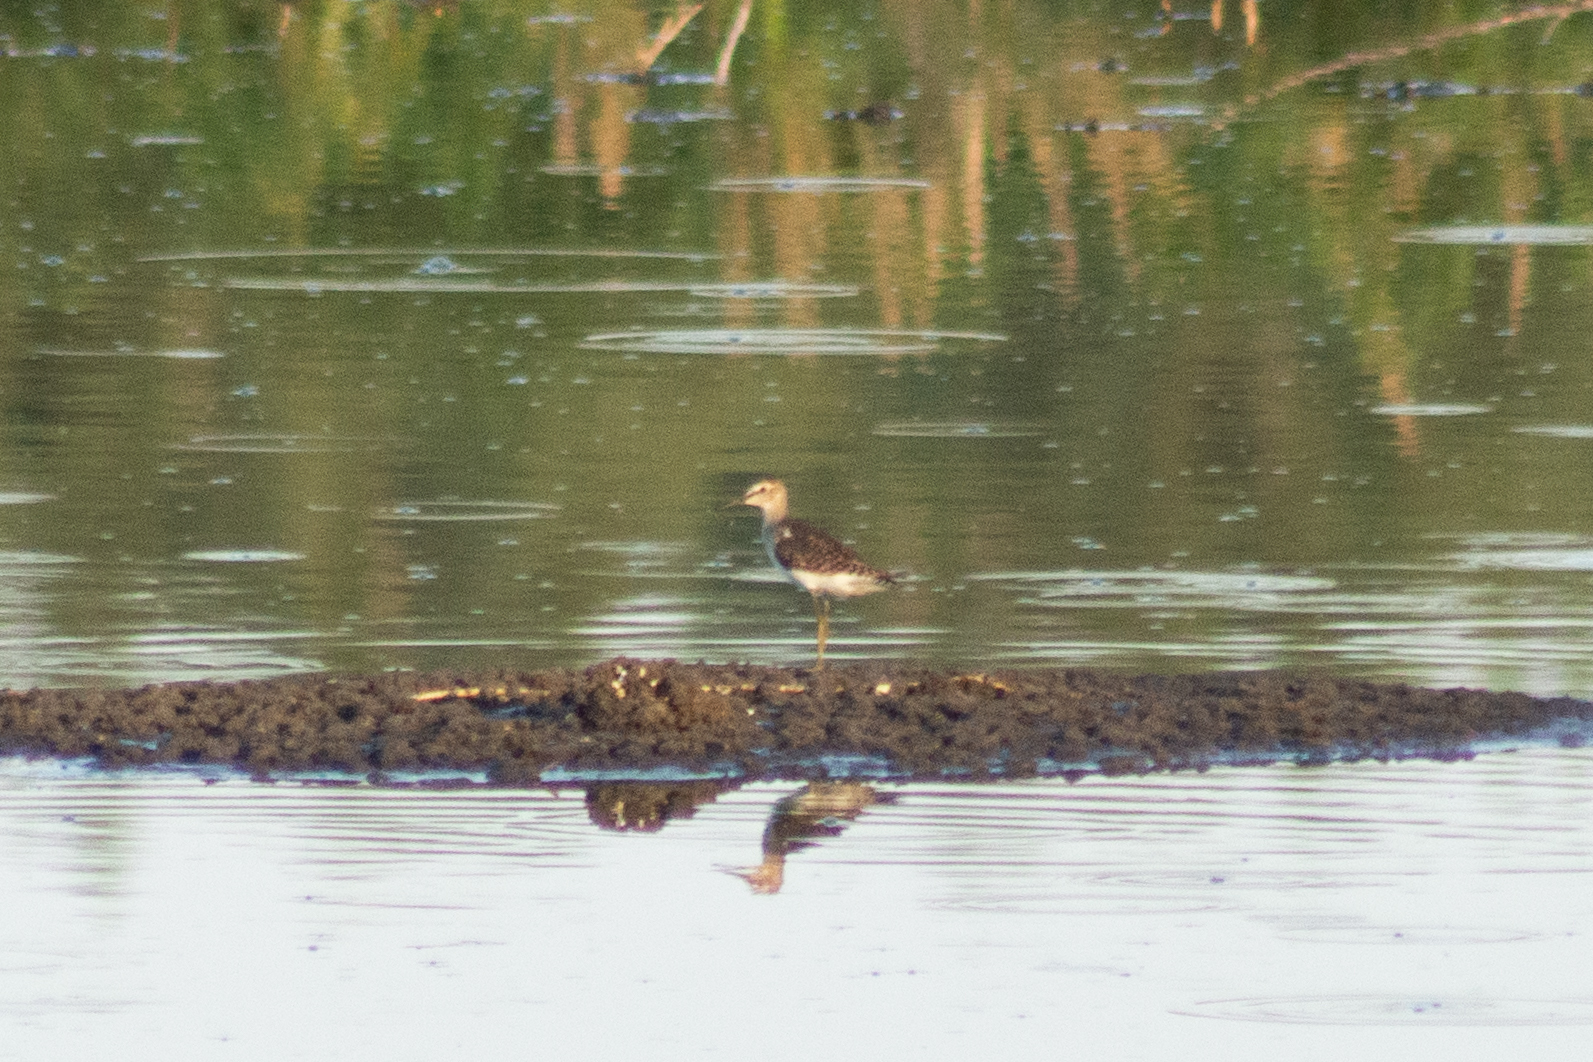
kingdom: Animalia
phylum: Chordata
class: Aves
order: Charadriiformes
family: Scolopacidae
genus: Tringa
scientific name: Tringa glareola
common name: Wood sandpiper
